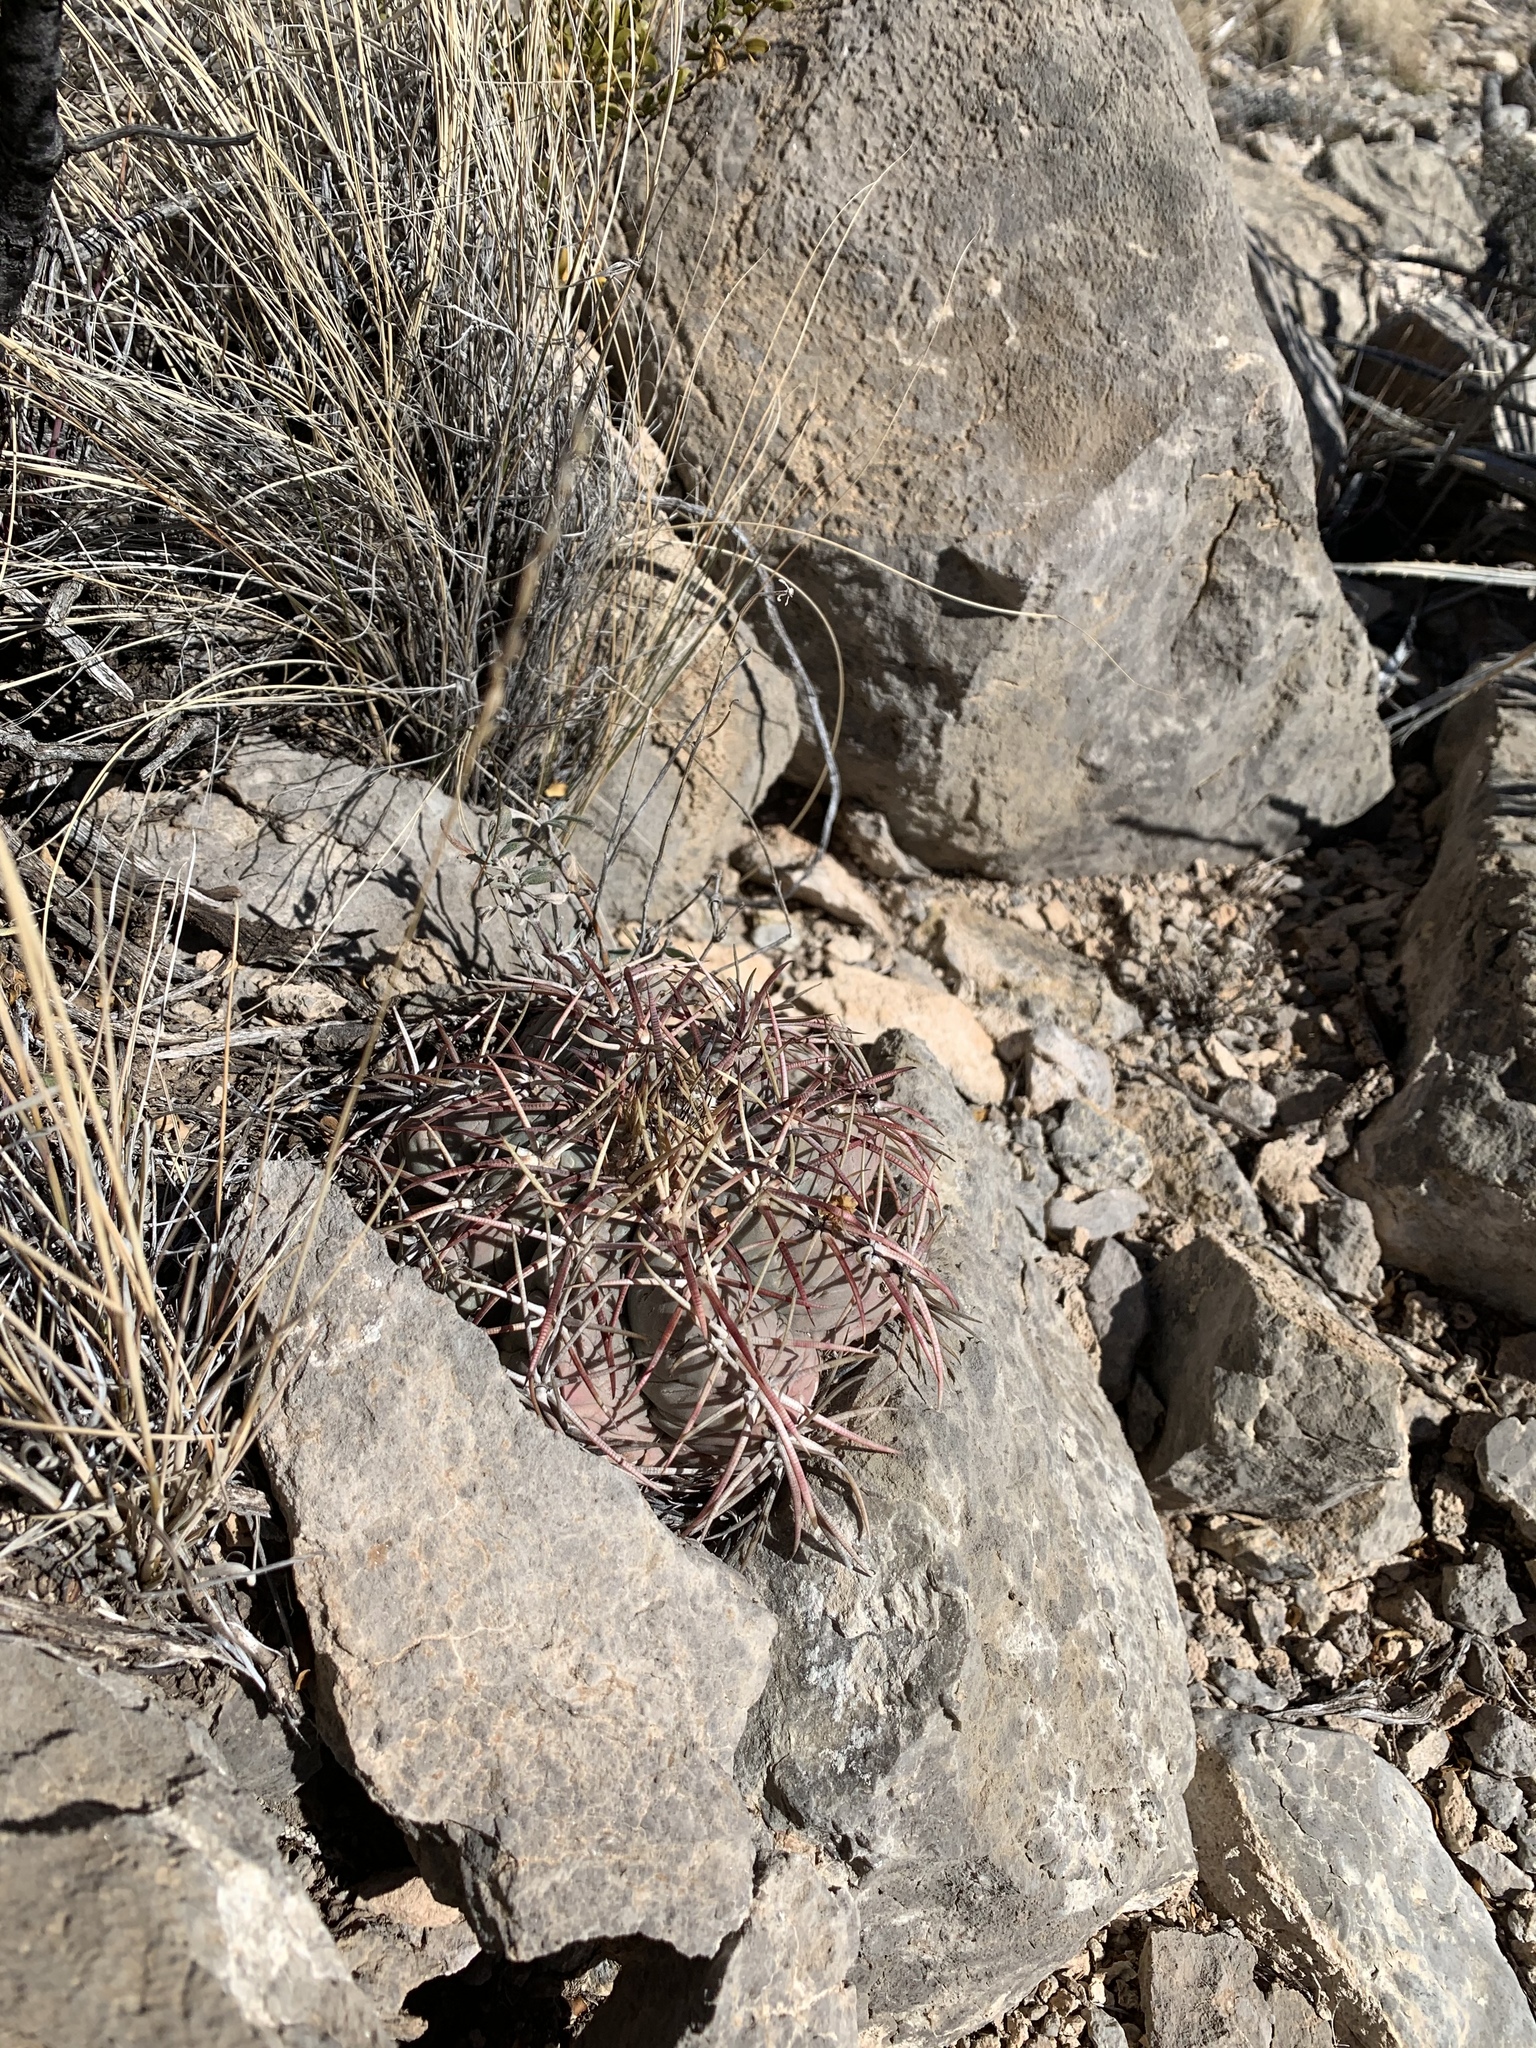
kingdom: Plantae
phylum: Tracheophyta
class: Magnoliopsida
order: Caryophyllales
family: Cactaceae
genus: Echinocactus
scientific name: Echinocactus horizonthalonius
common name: Devilshead
